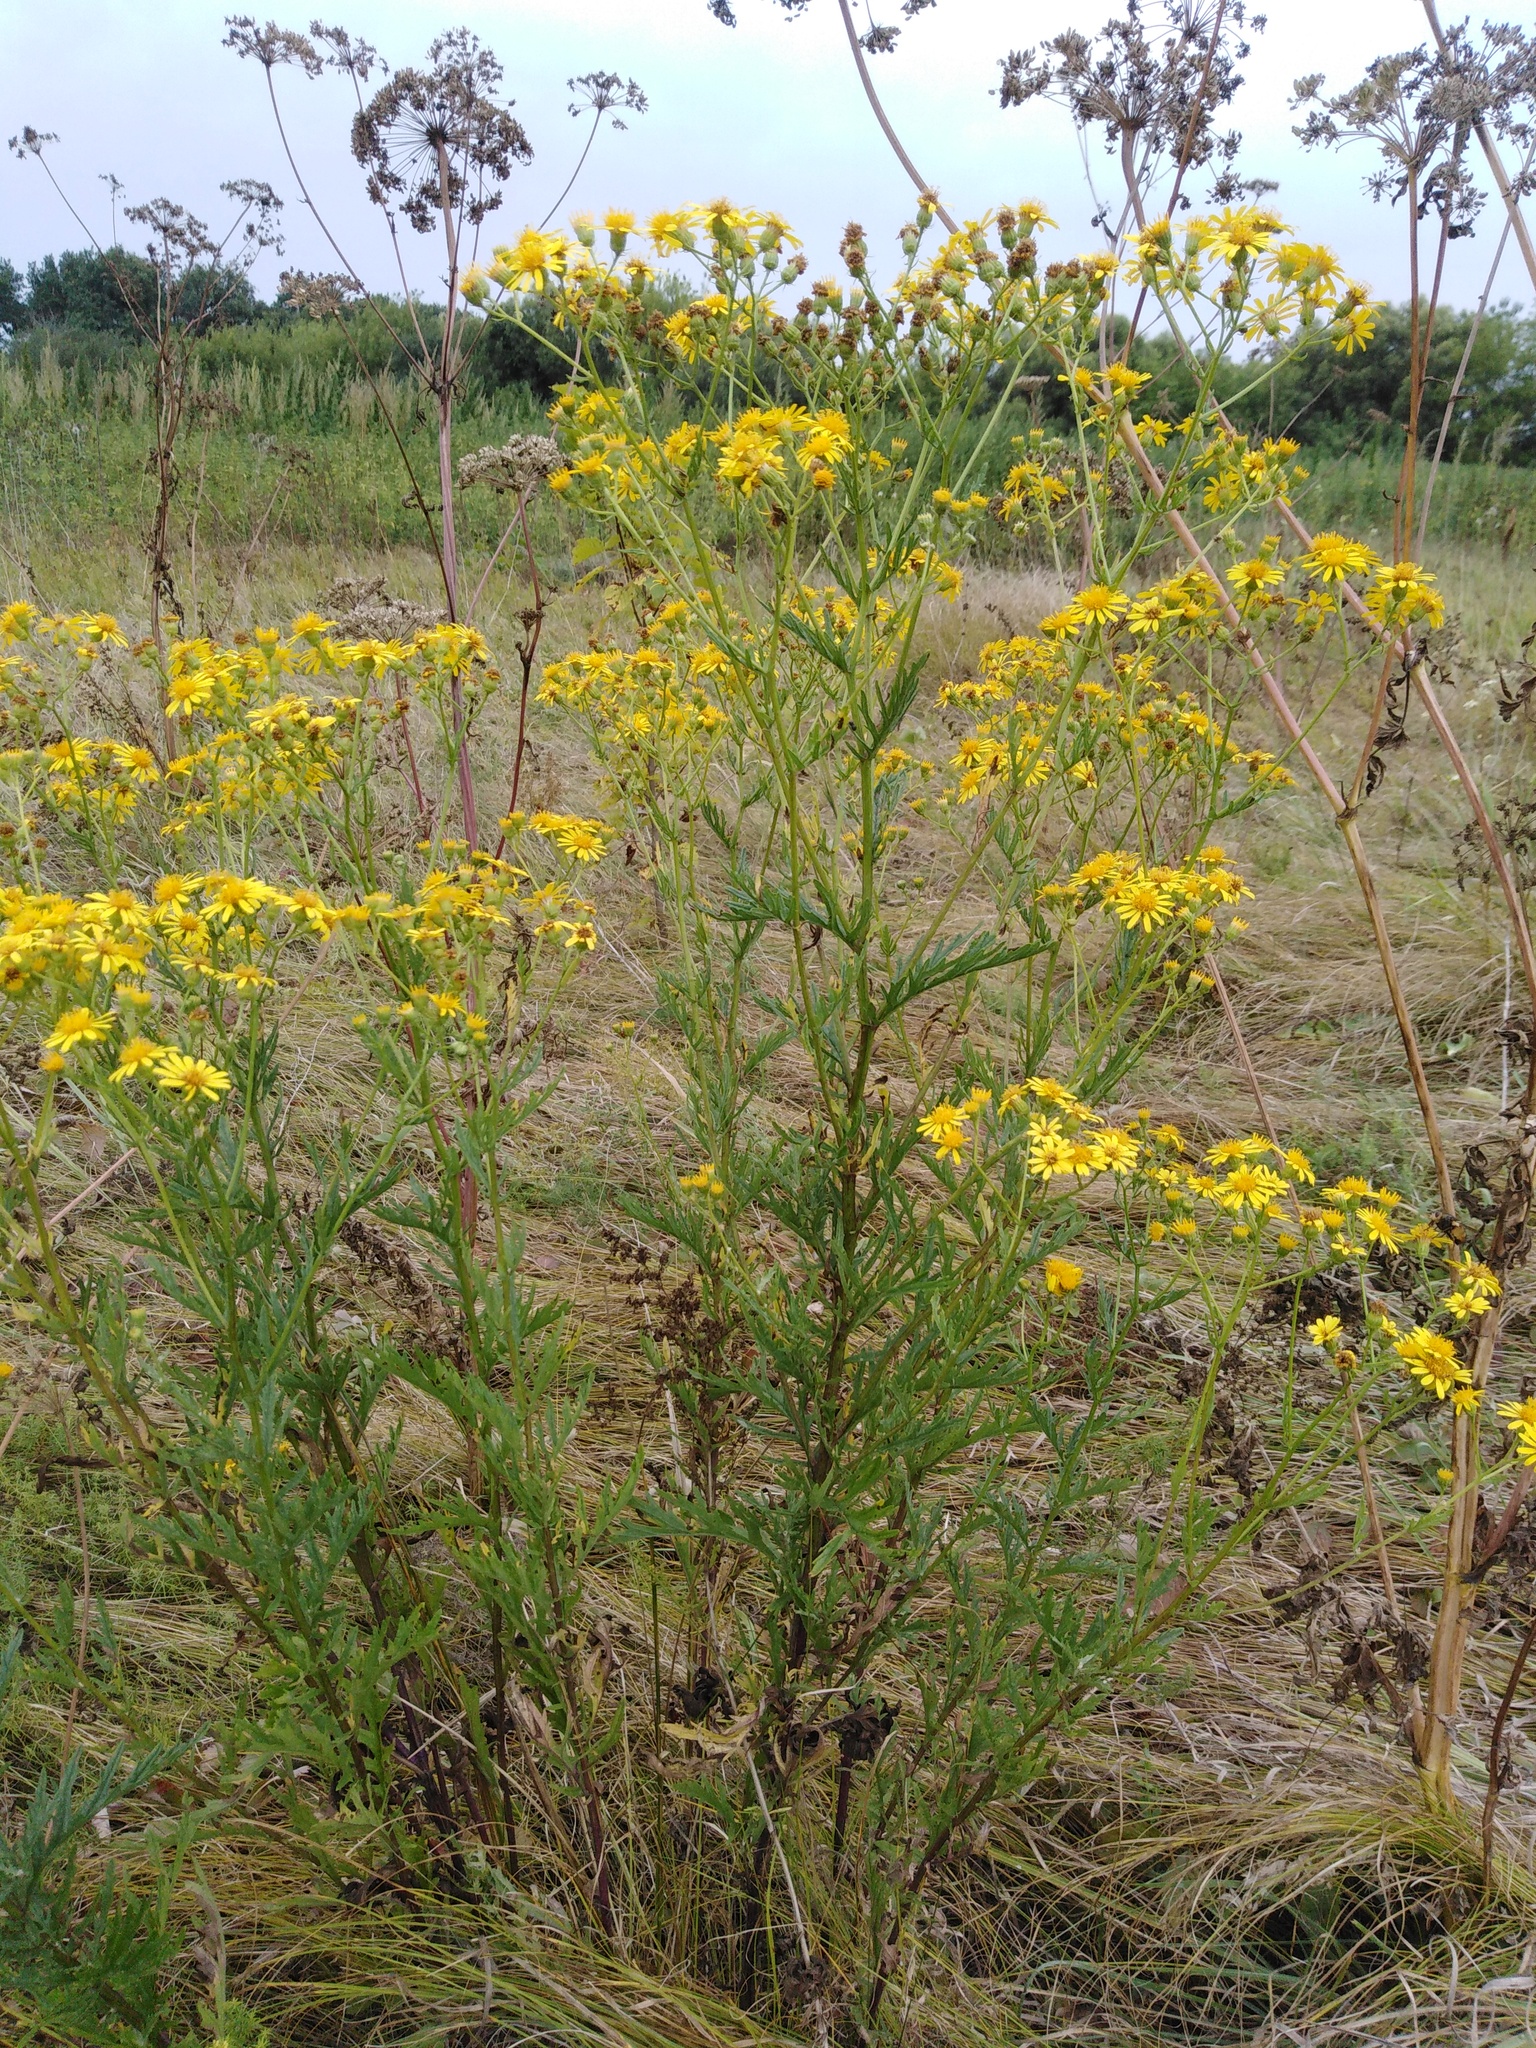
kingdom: Plantae
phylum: Tracheophyta
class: Magnoliopsida
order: Asterales
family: Asteraceae
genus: Jacobaea
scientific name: Jacobaea erucifolia
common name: Hoary ragwort
